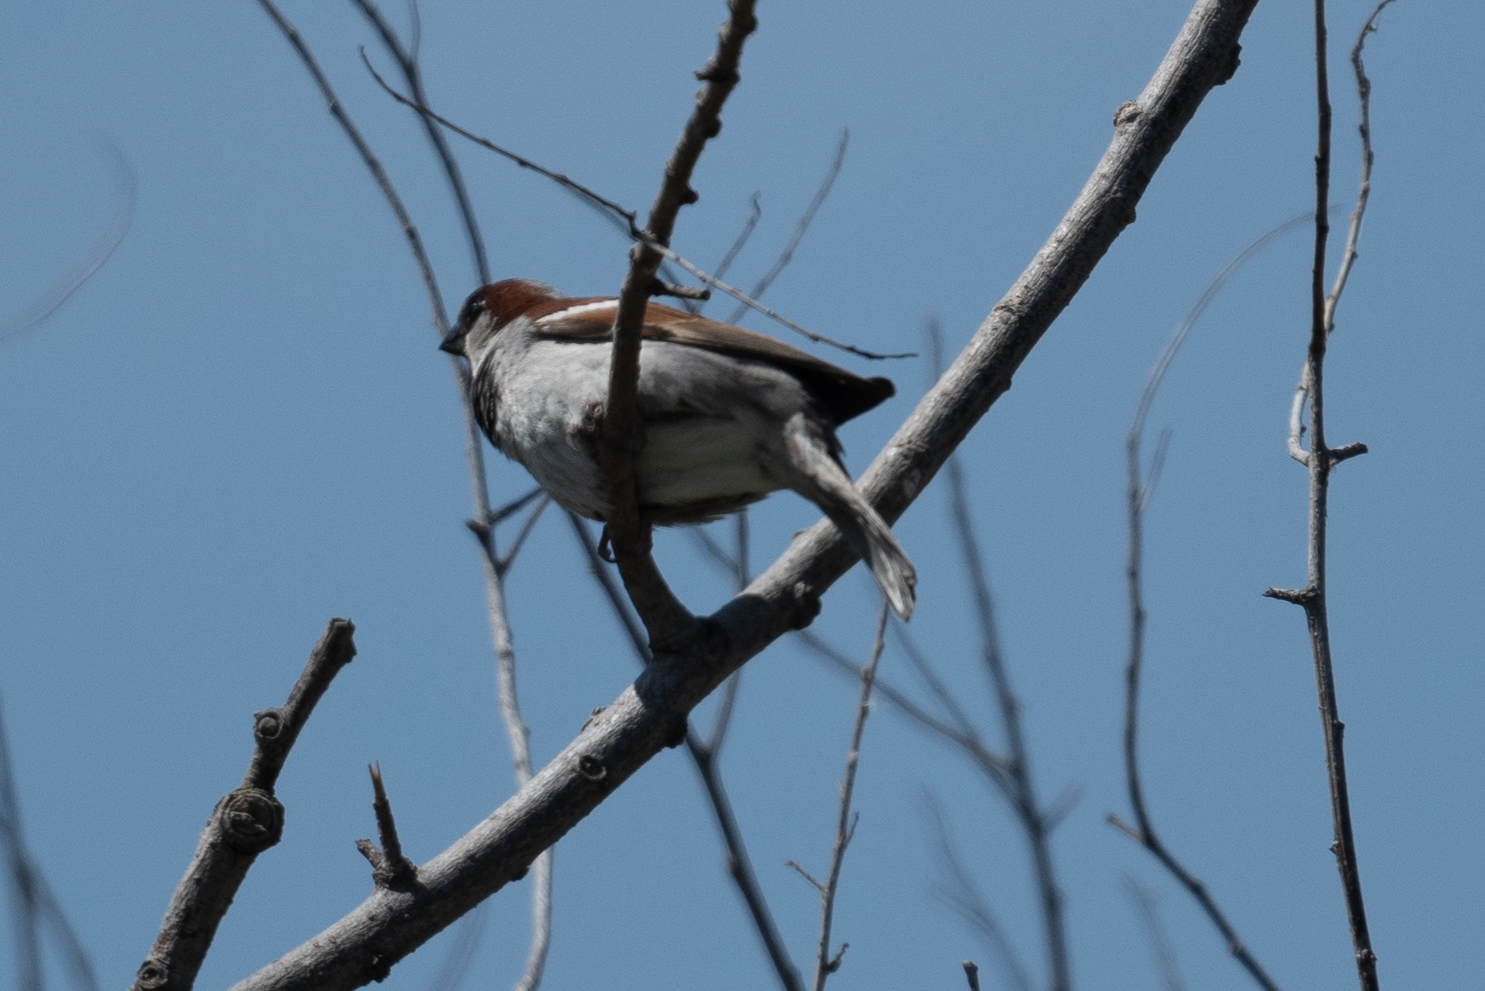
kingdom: Animalia
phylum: Chordata
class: Aves
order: Passeriformes
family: Passeridae
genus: Passer
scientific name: Passer domesticus
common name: House sparrow
